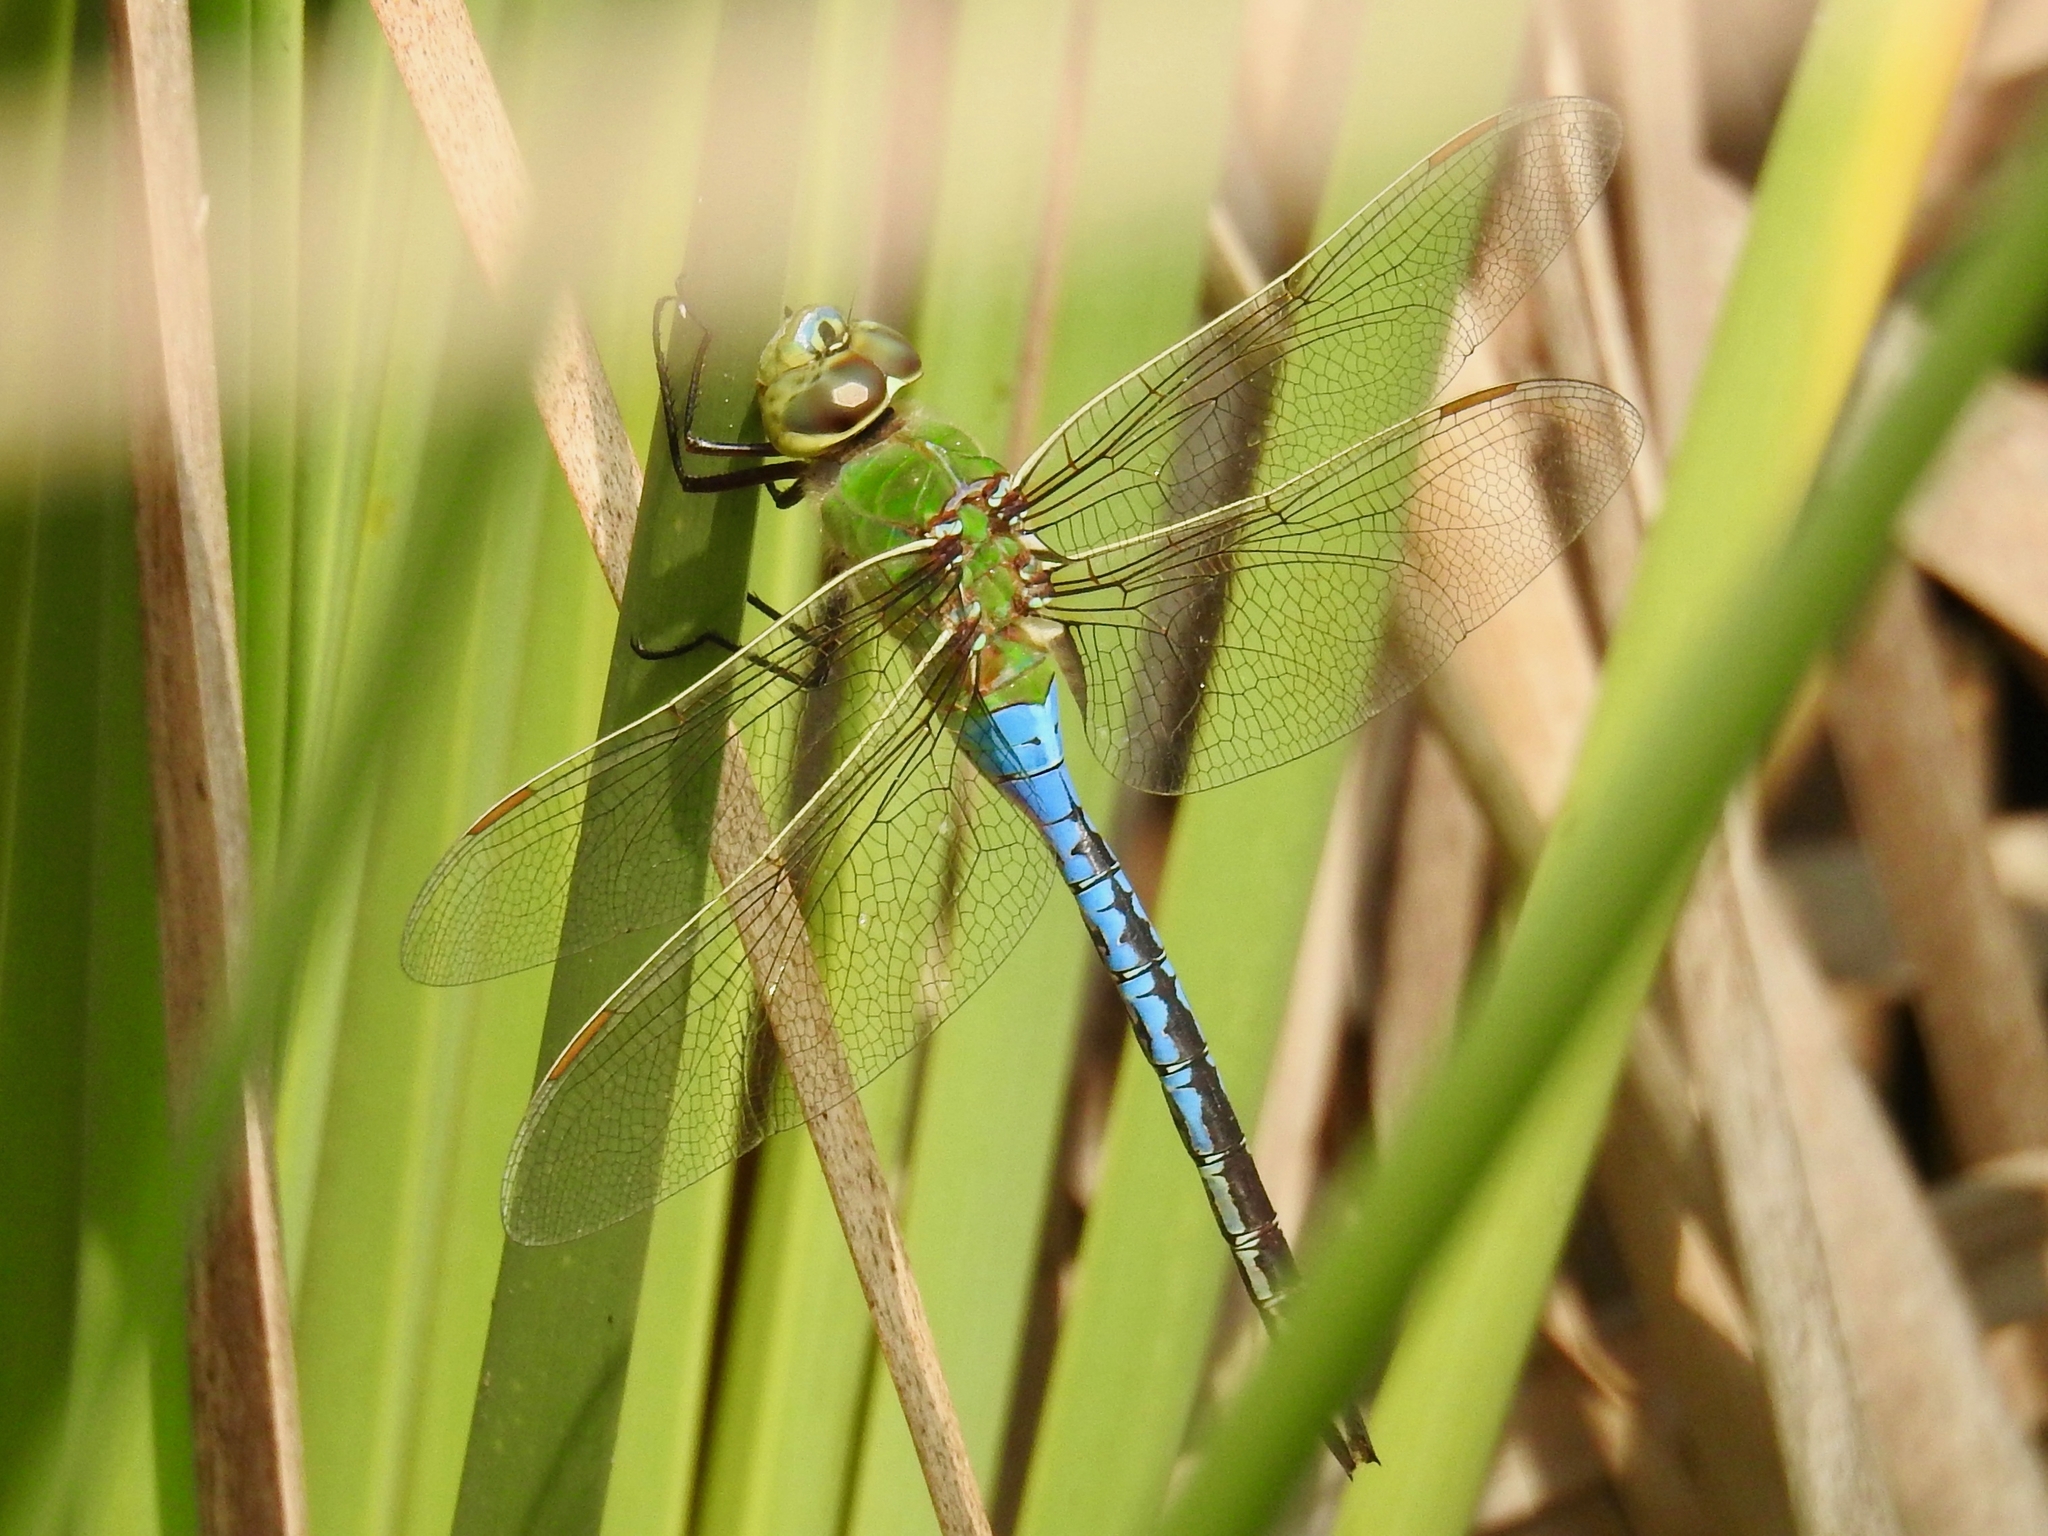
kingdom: Animalia
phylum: Arthropoda
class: Insecta
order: Odonata
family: Aeshnidae
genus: Anax
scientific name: Anax junius
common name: Common green darner
